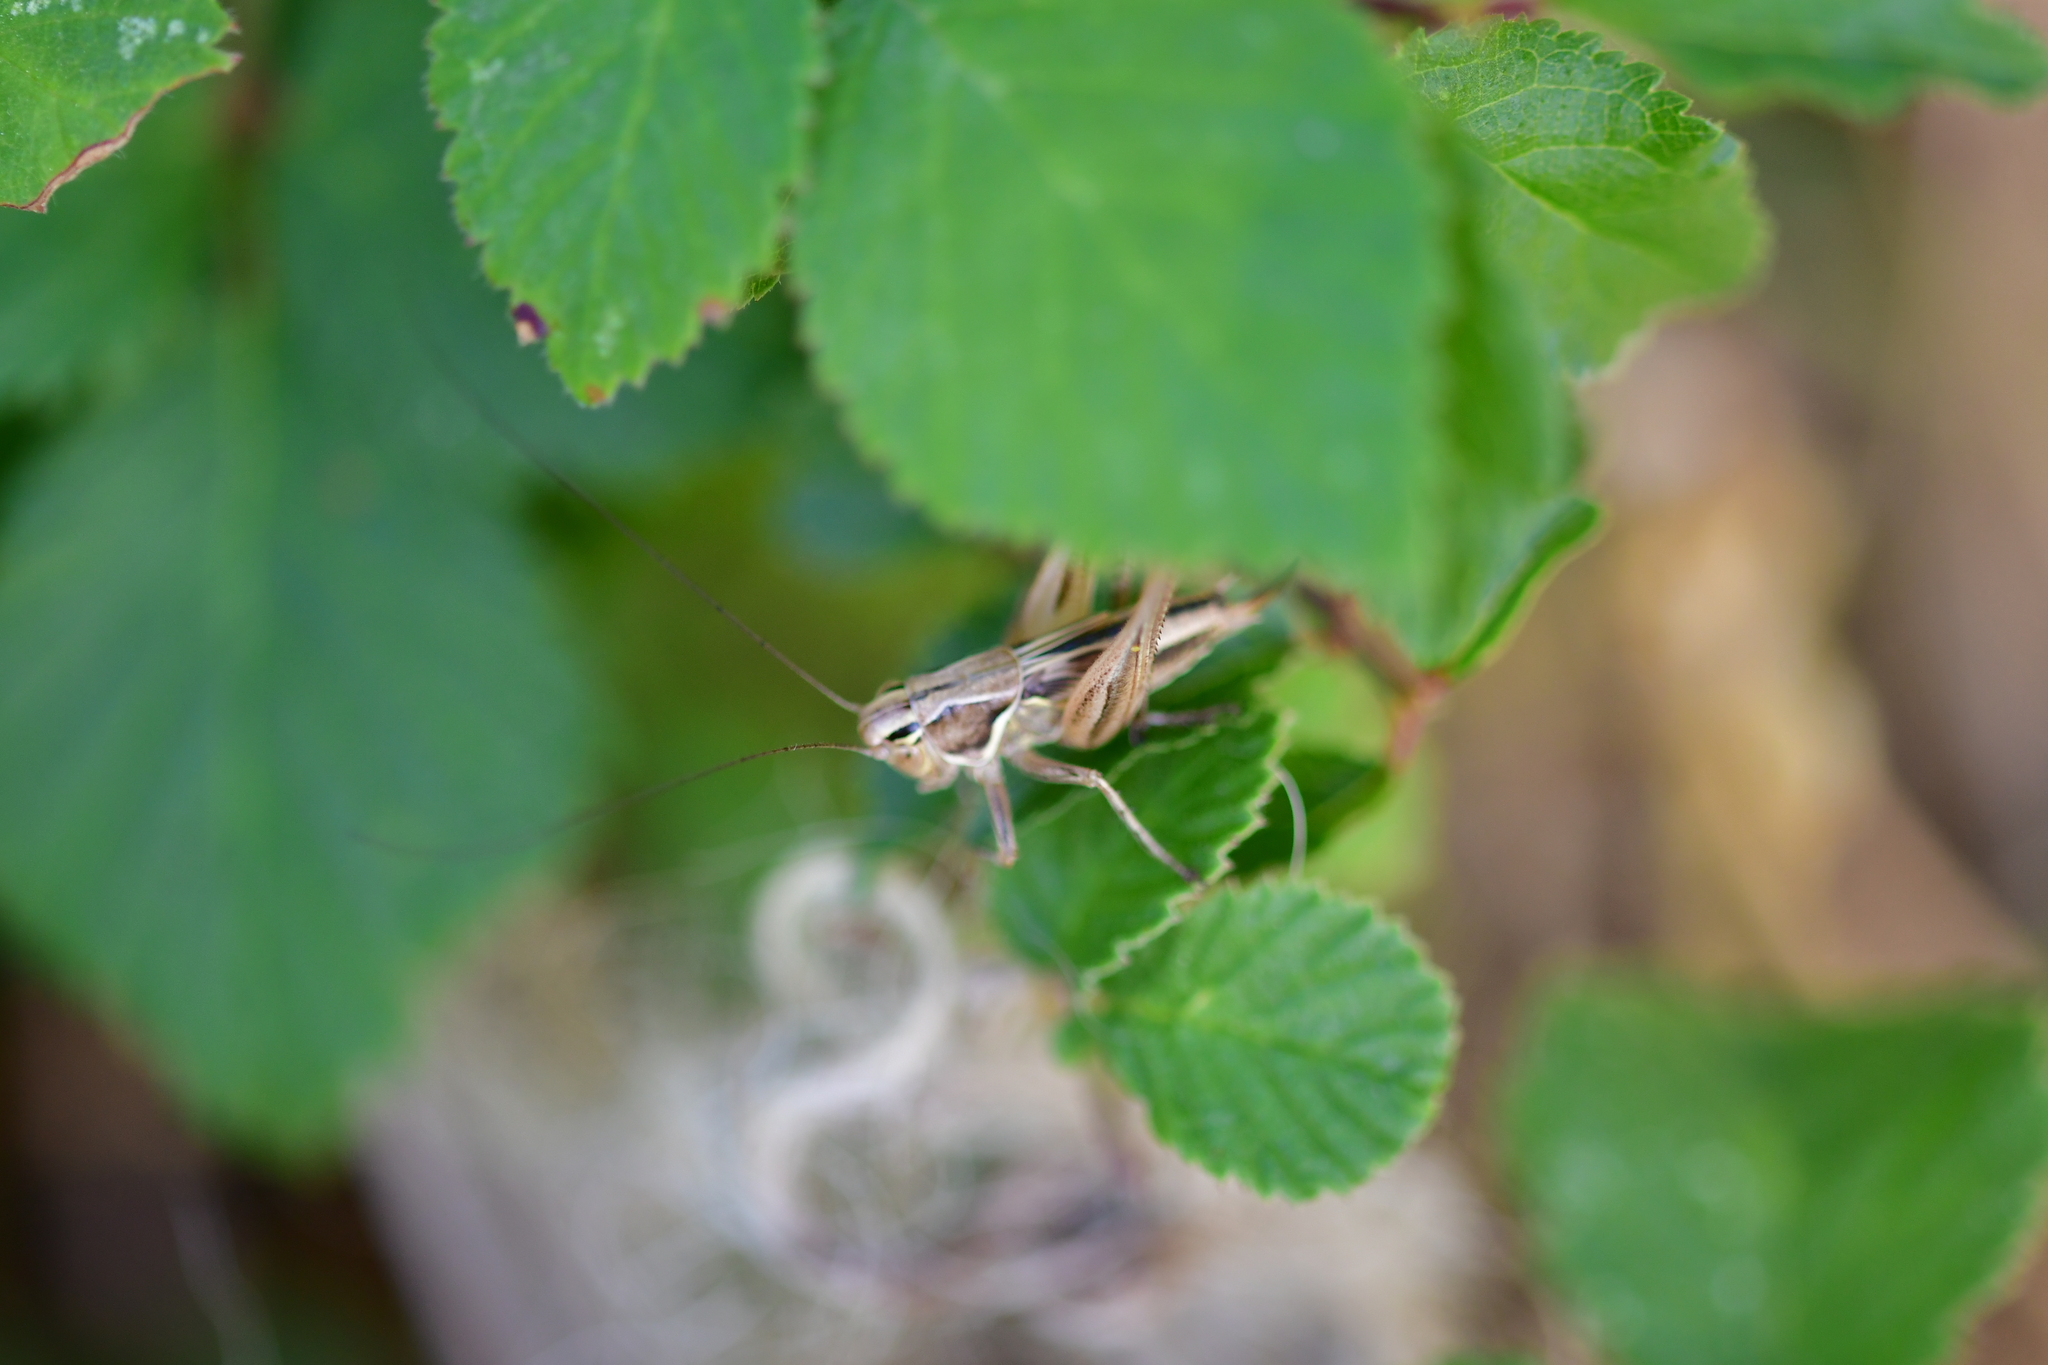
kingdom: Animalia
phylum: Arthropoda
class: Insecta
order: Orthoptera
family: Tettigoniidae
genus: Tessellana
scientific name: Tessellana tessellata
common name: Grasshopper
